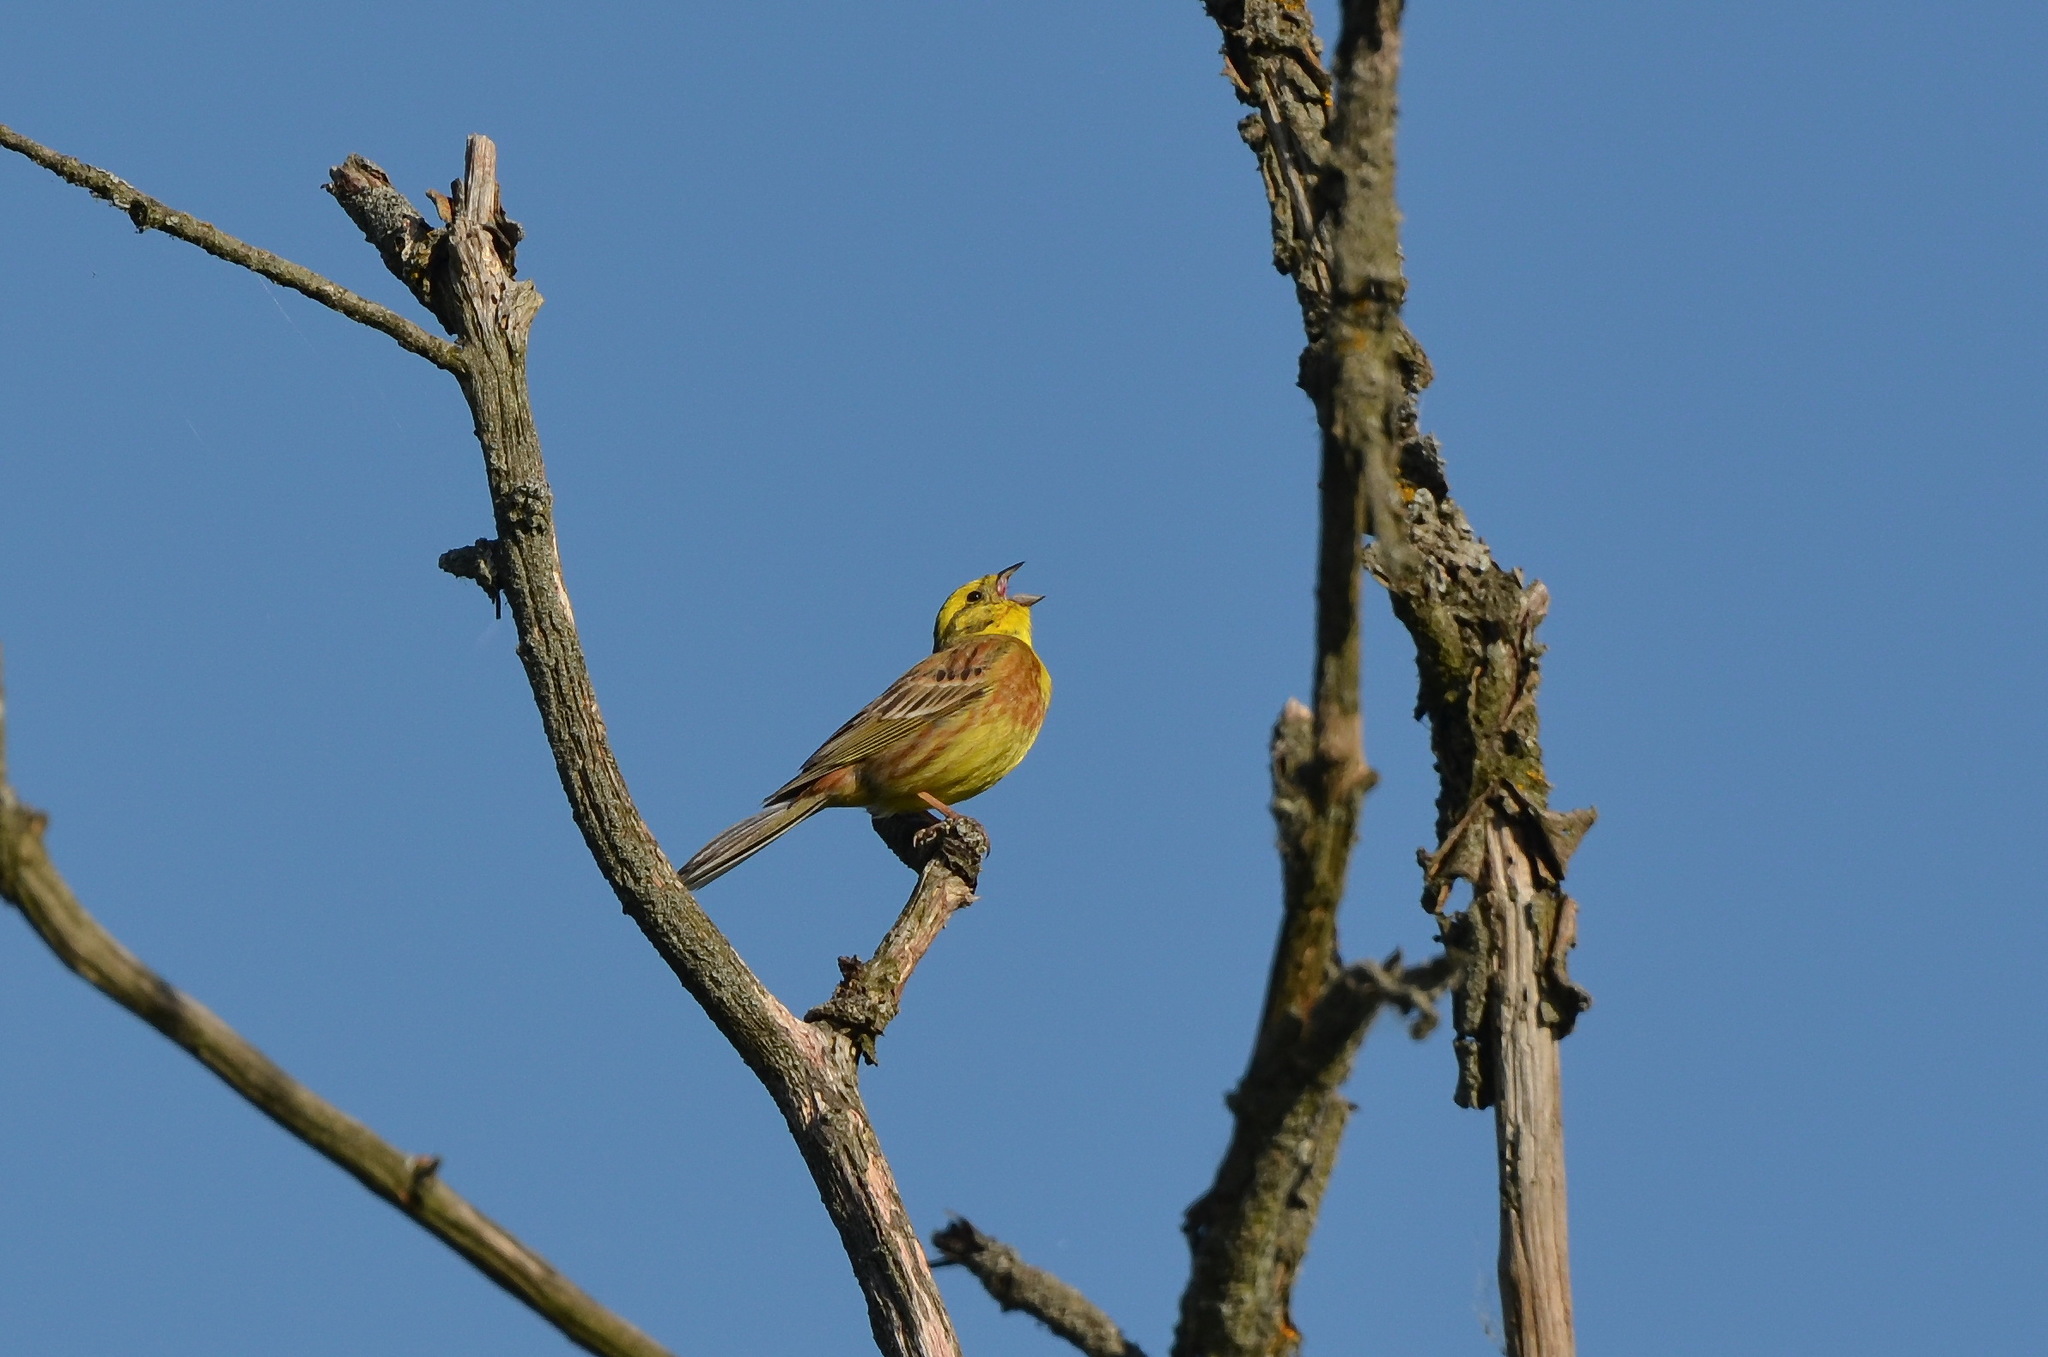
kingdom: Animalia
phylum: Chordata
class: Aves
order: Passeriformes
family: Emberizidae
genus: Emberiza
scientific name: Emberiza citrinella
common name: Yellowhammer
